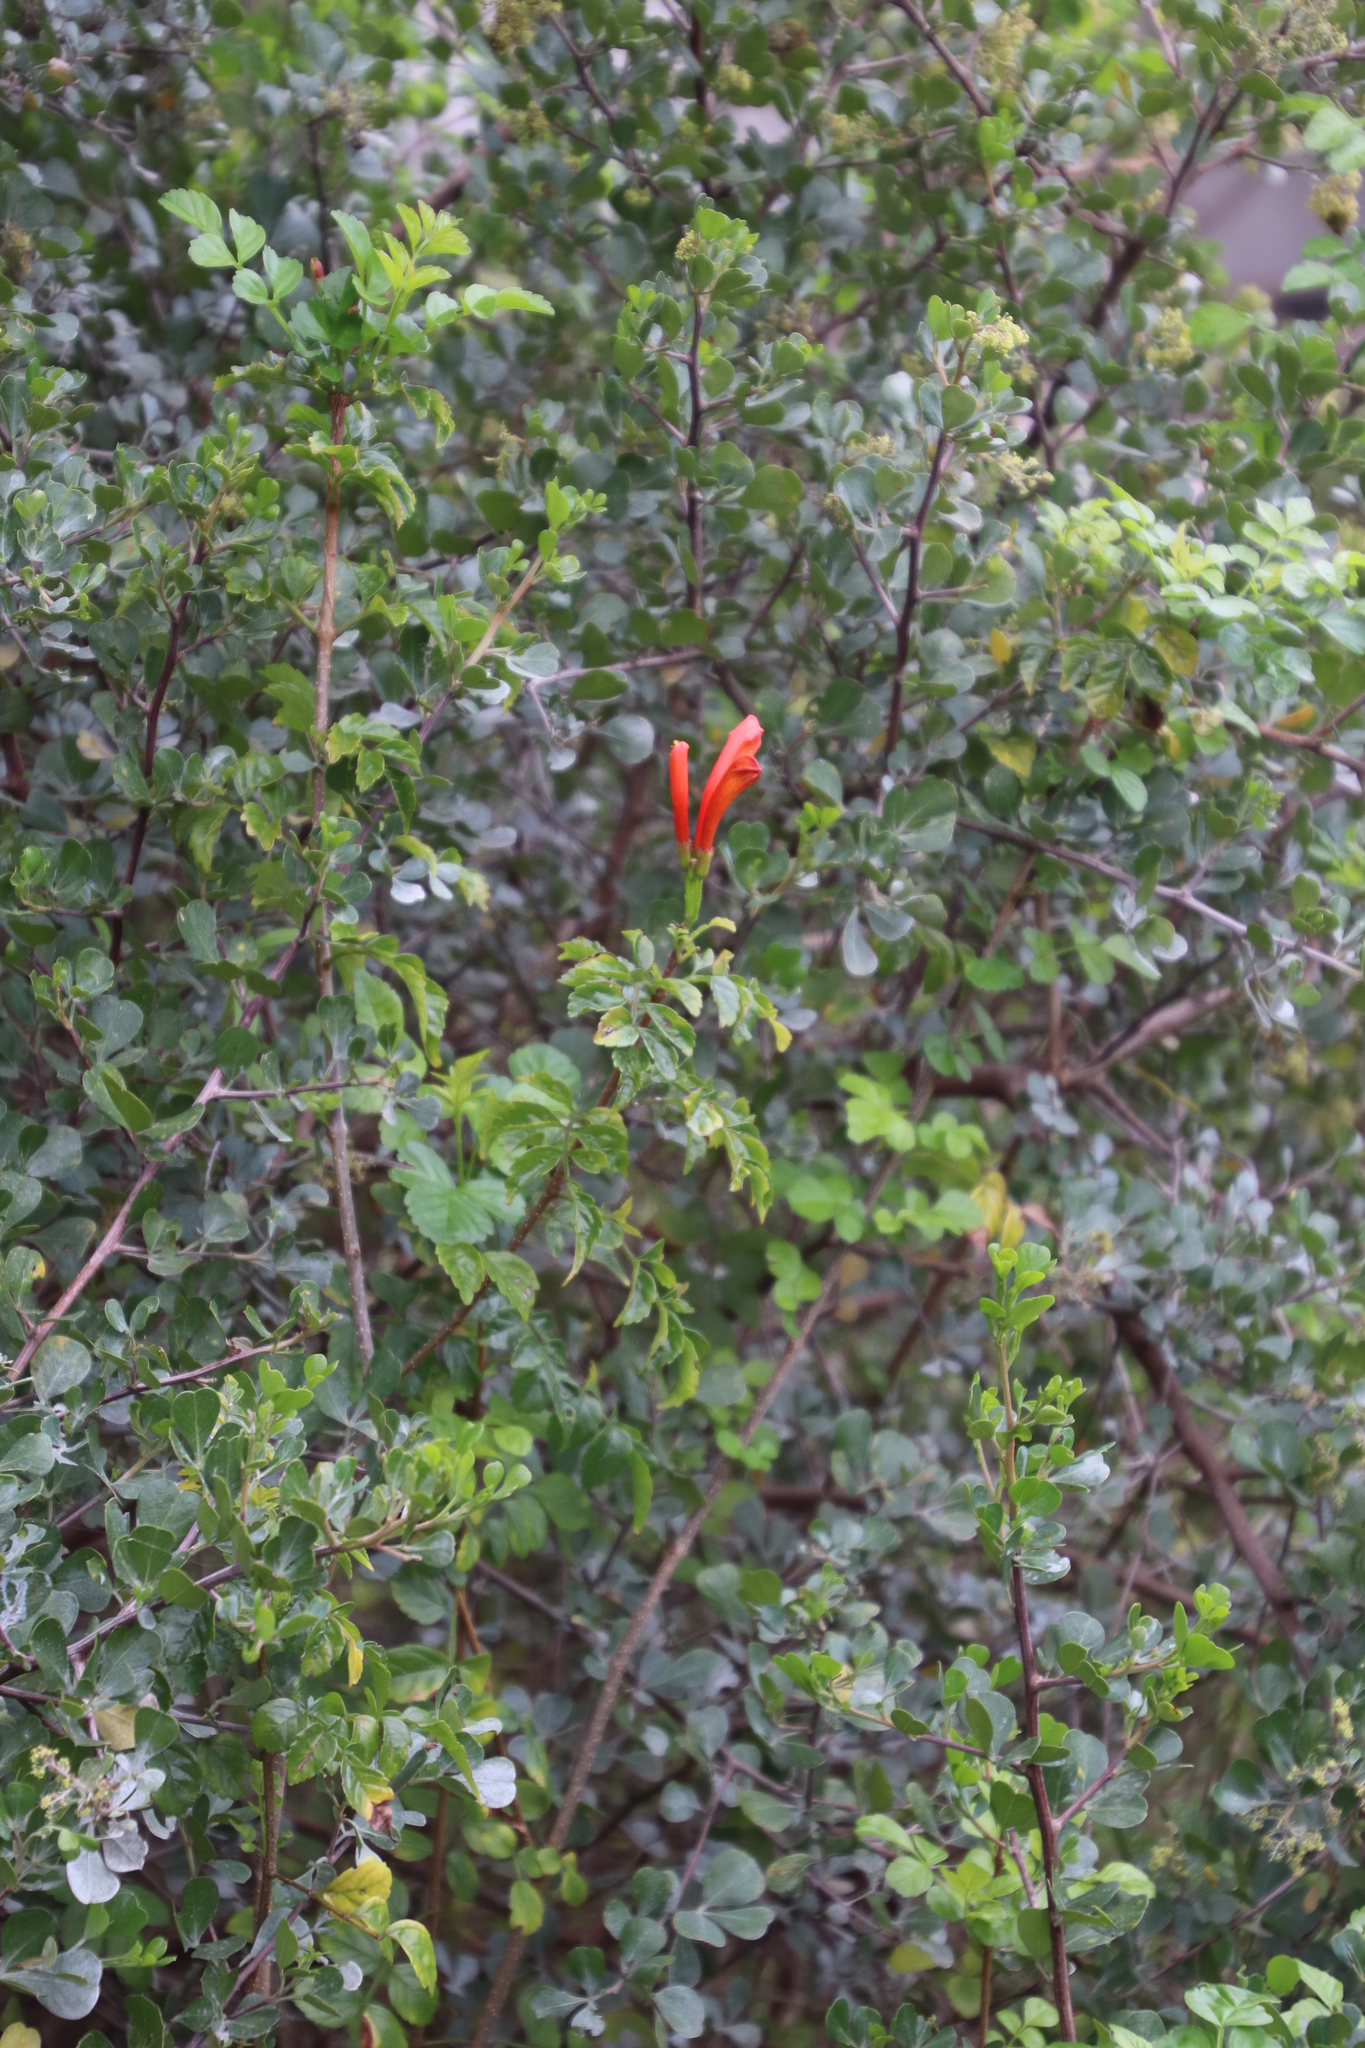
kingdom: Plantae
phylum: Tracheophyta
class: Magnoliopsida
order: Lamiales
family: Bignoniaceae
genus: Tecomaria
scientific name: Tecomaria capensis
